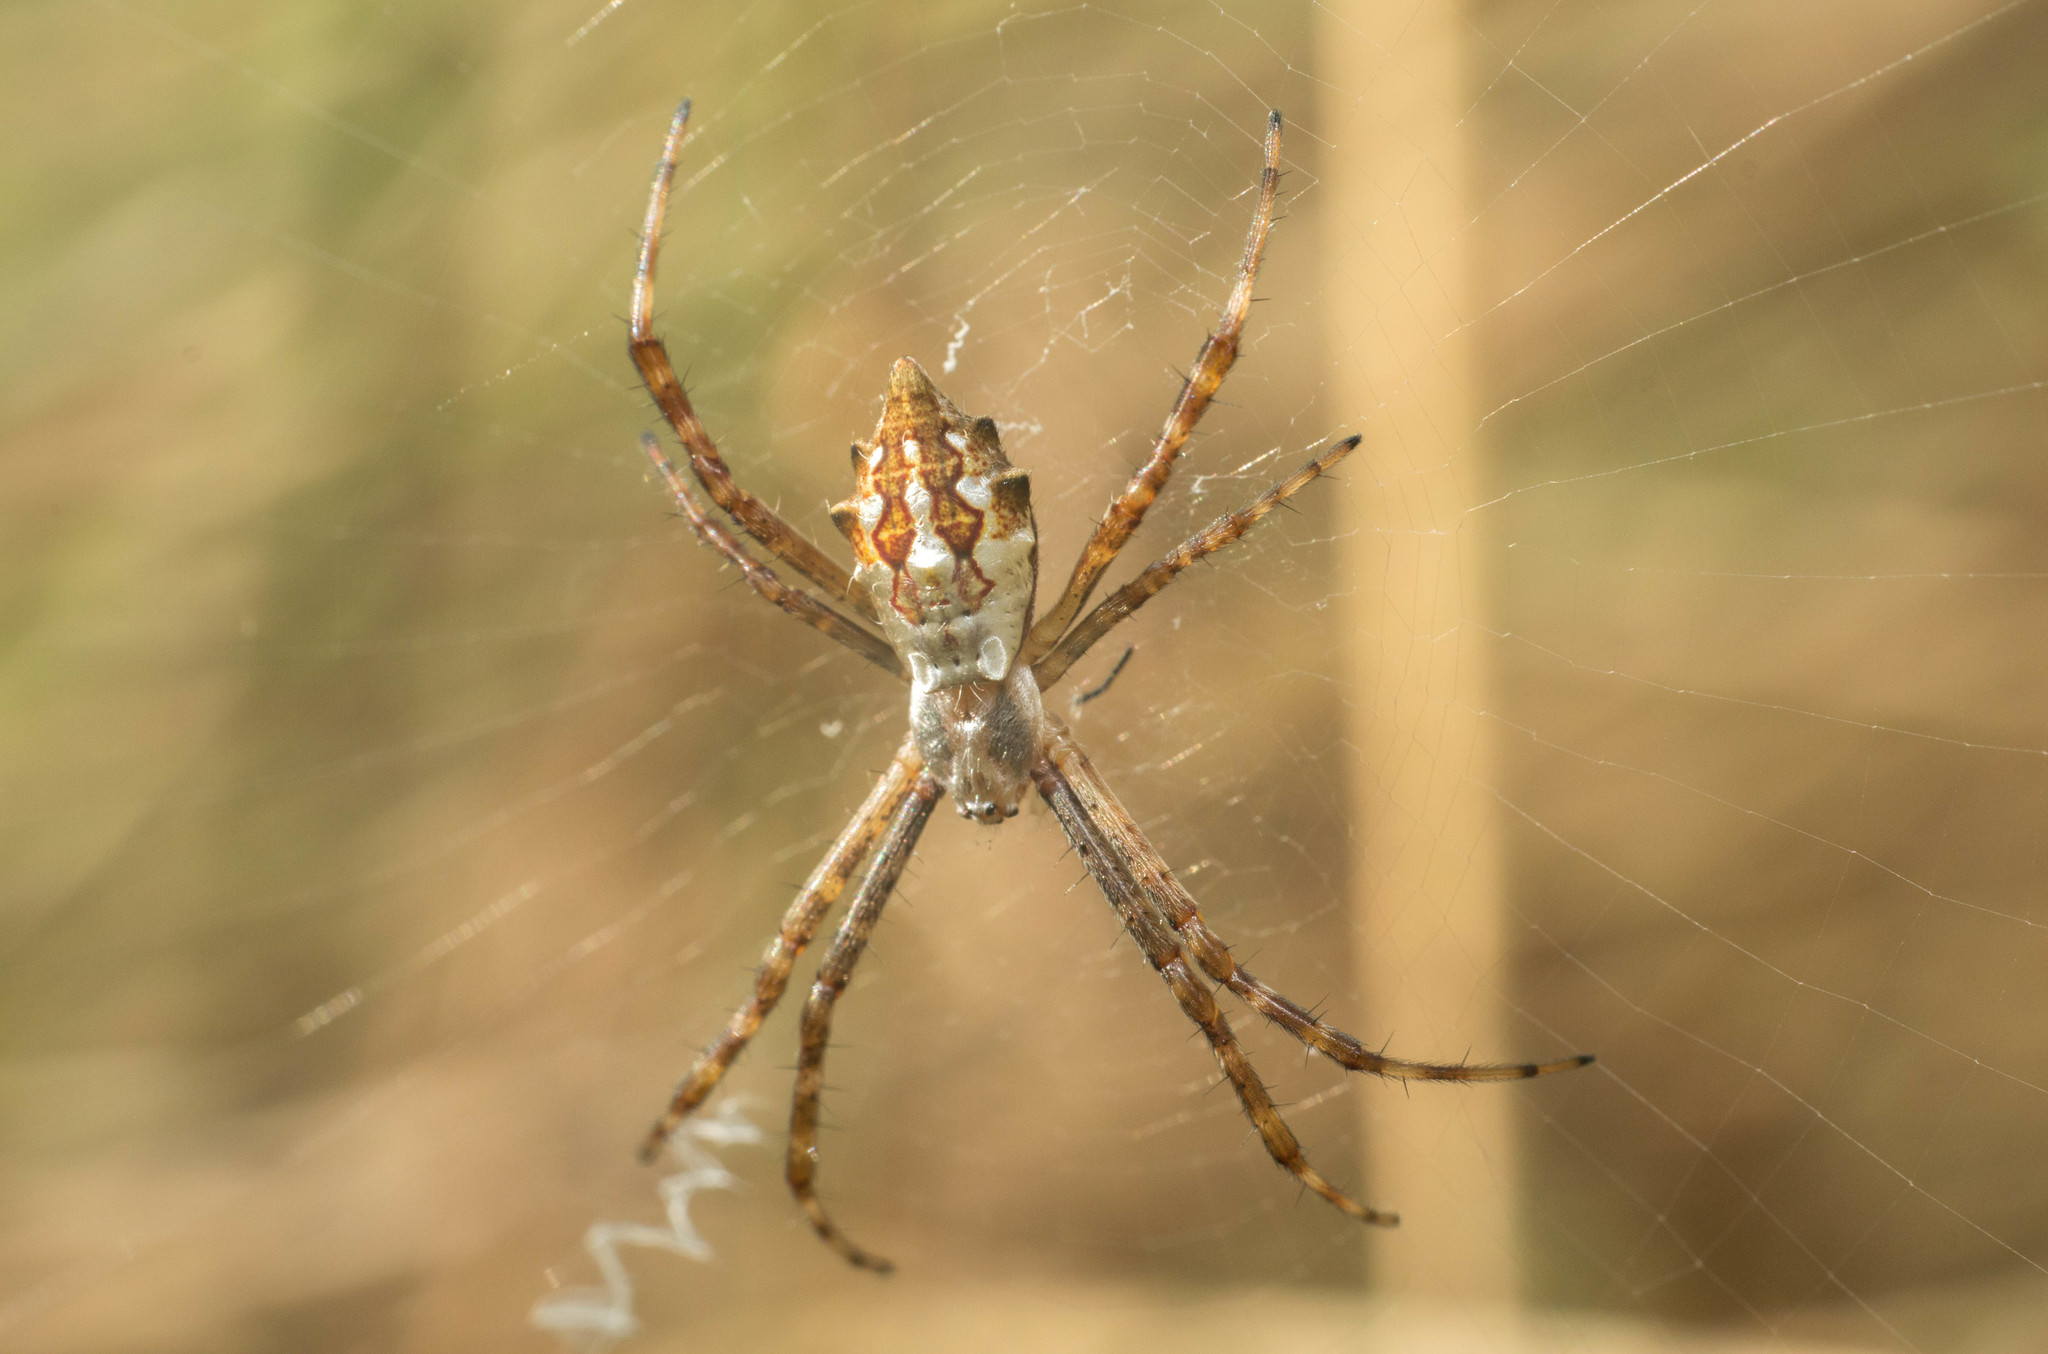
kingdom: Animalia
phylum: Arthropoda
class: Arachnida
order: Araneae
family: Araneidae
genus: Argiope
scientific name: Argiope argentata
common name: Orb weavers
